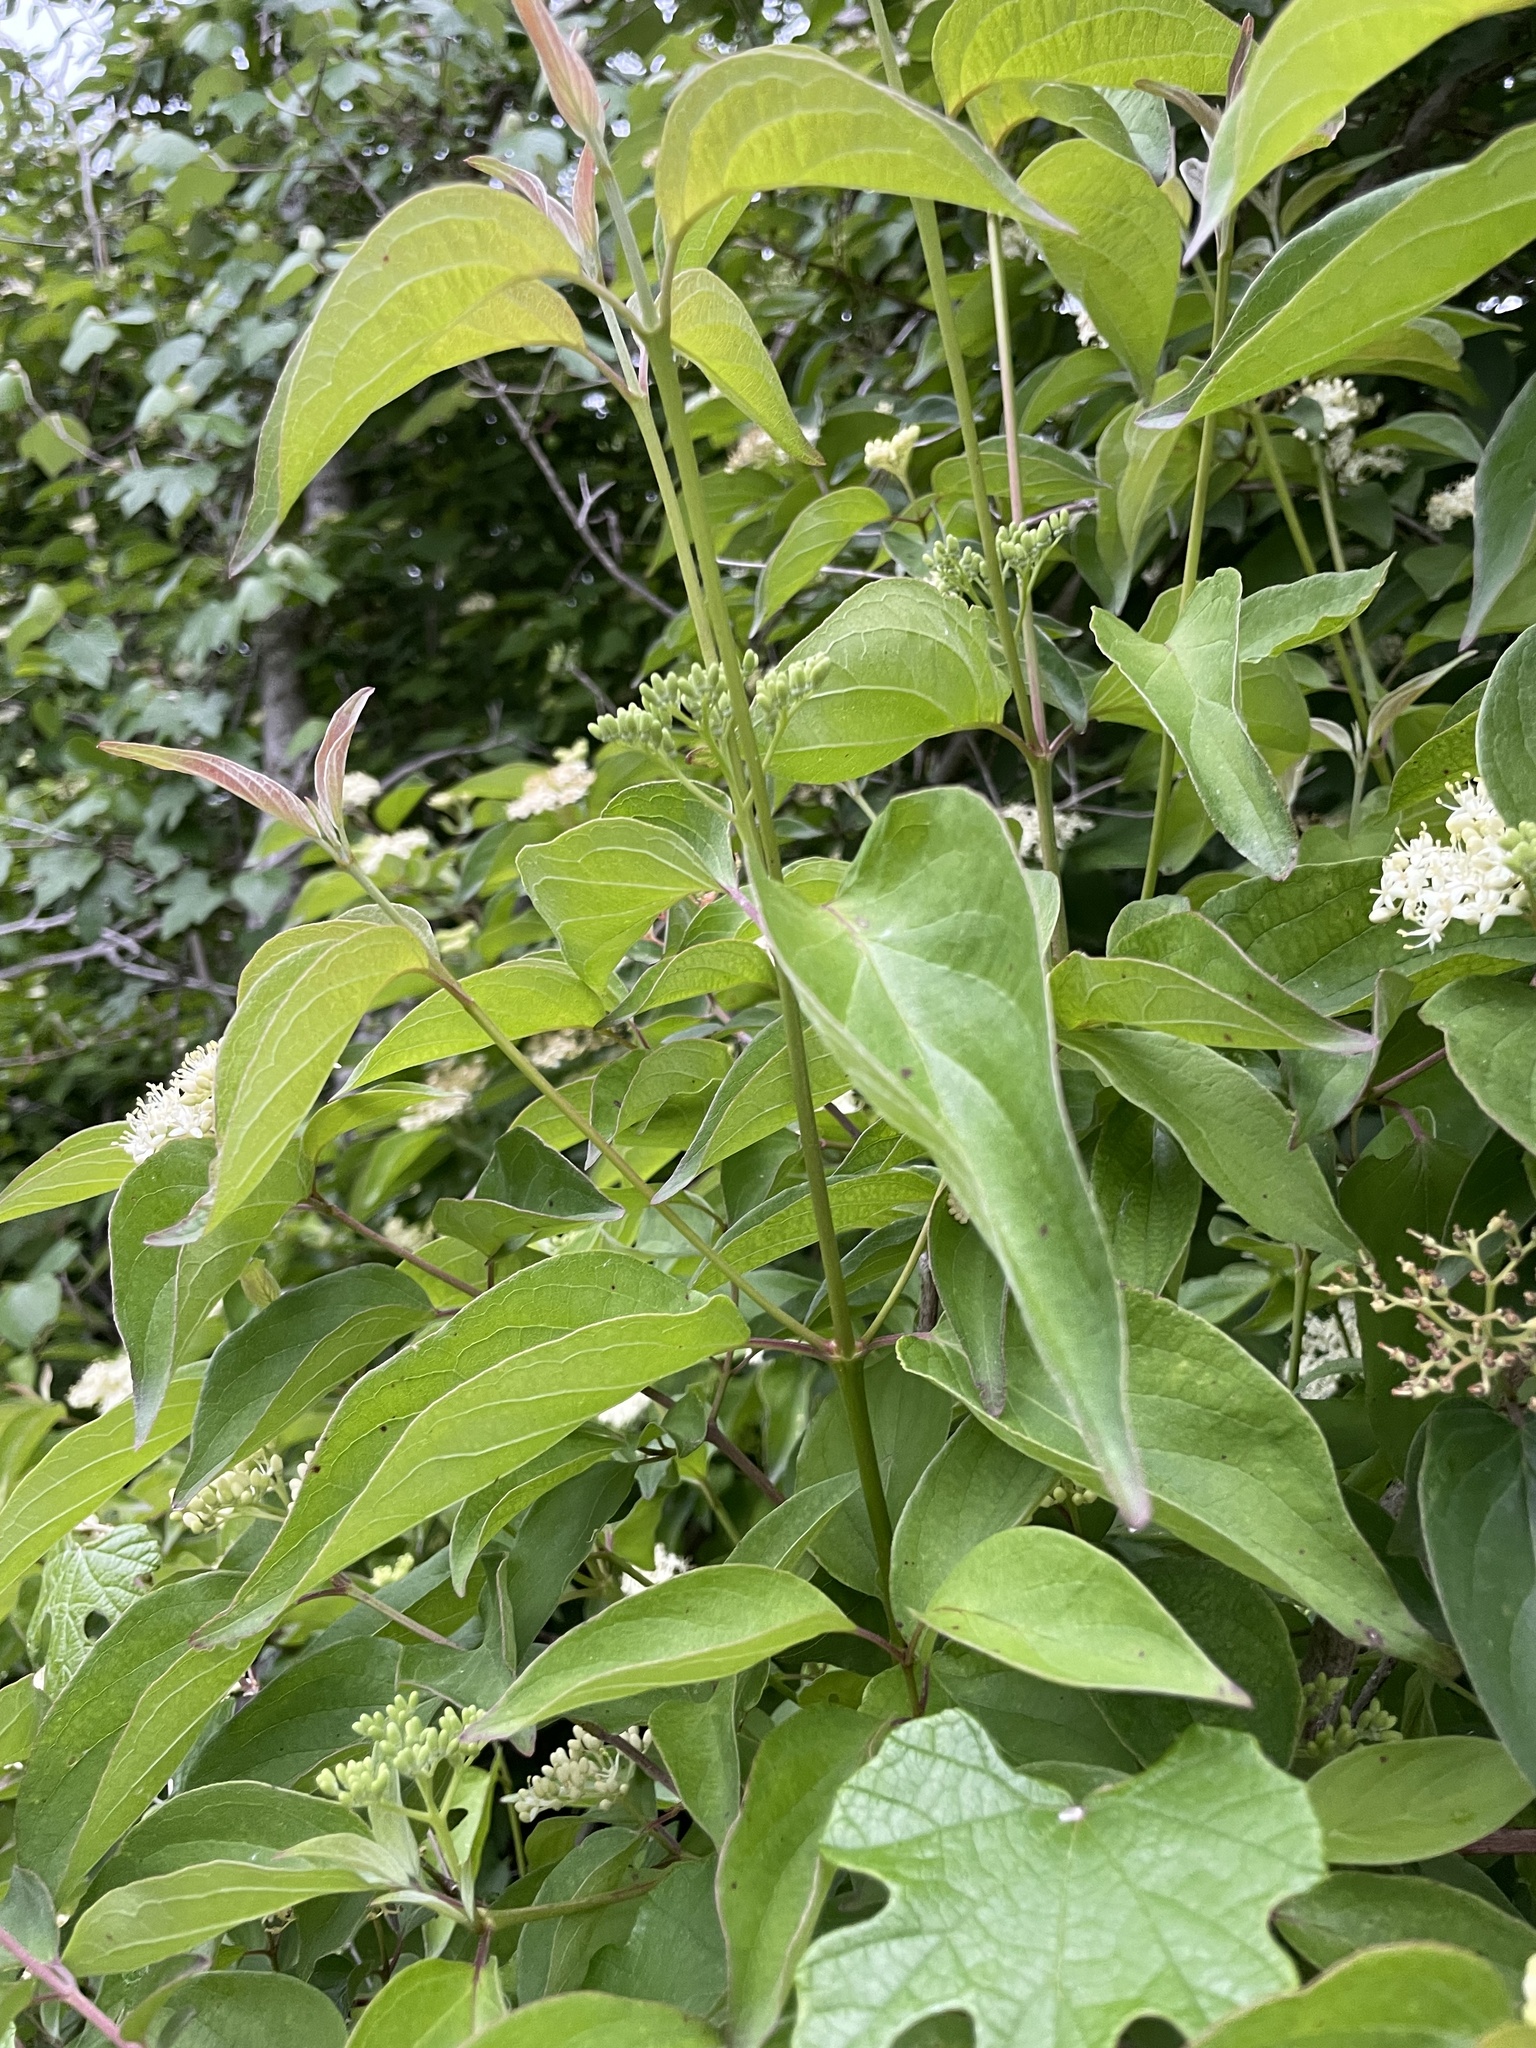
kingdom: Plantae
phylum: Tracheophyta
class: Magnoliopsida
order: Cornales
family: Cornaceae
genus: Cornus
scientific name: Cornus drummondii
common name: Rough-leaf dogwood
